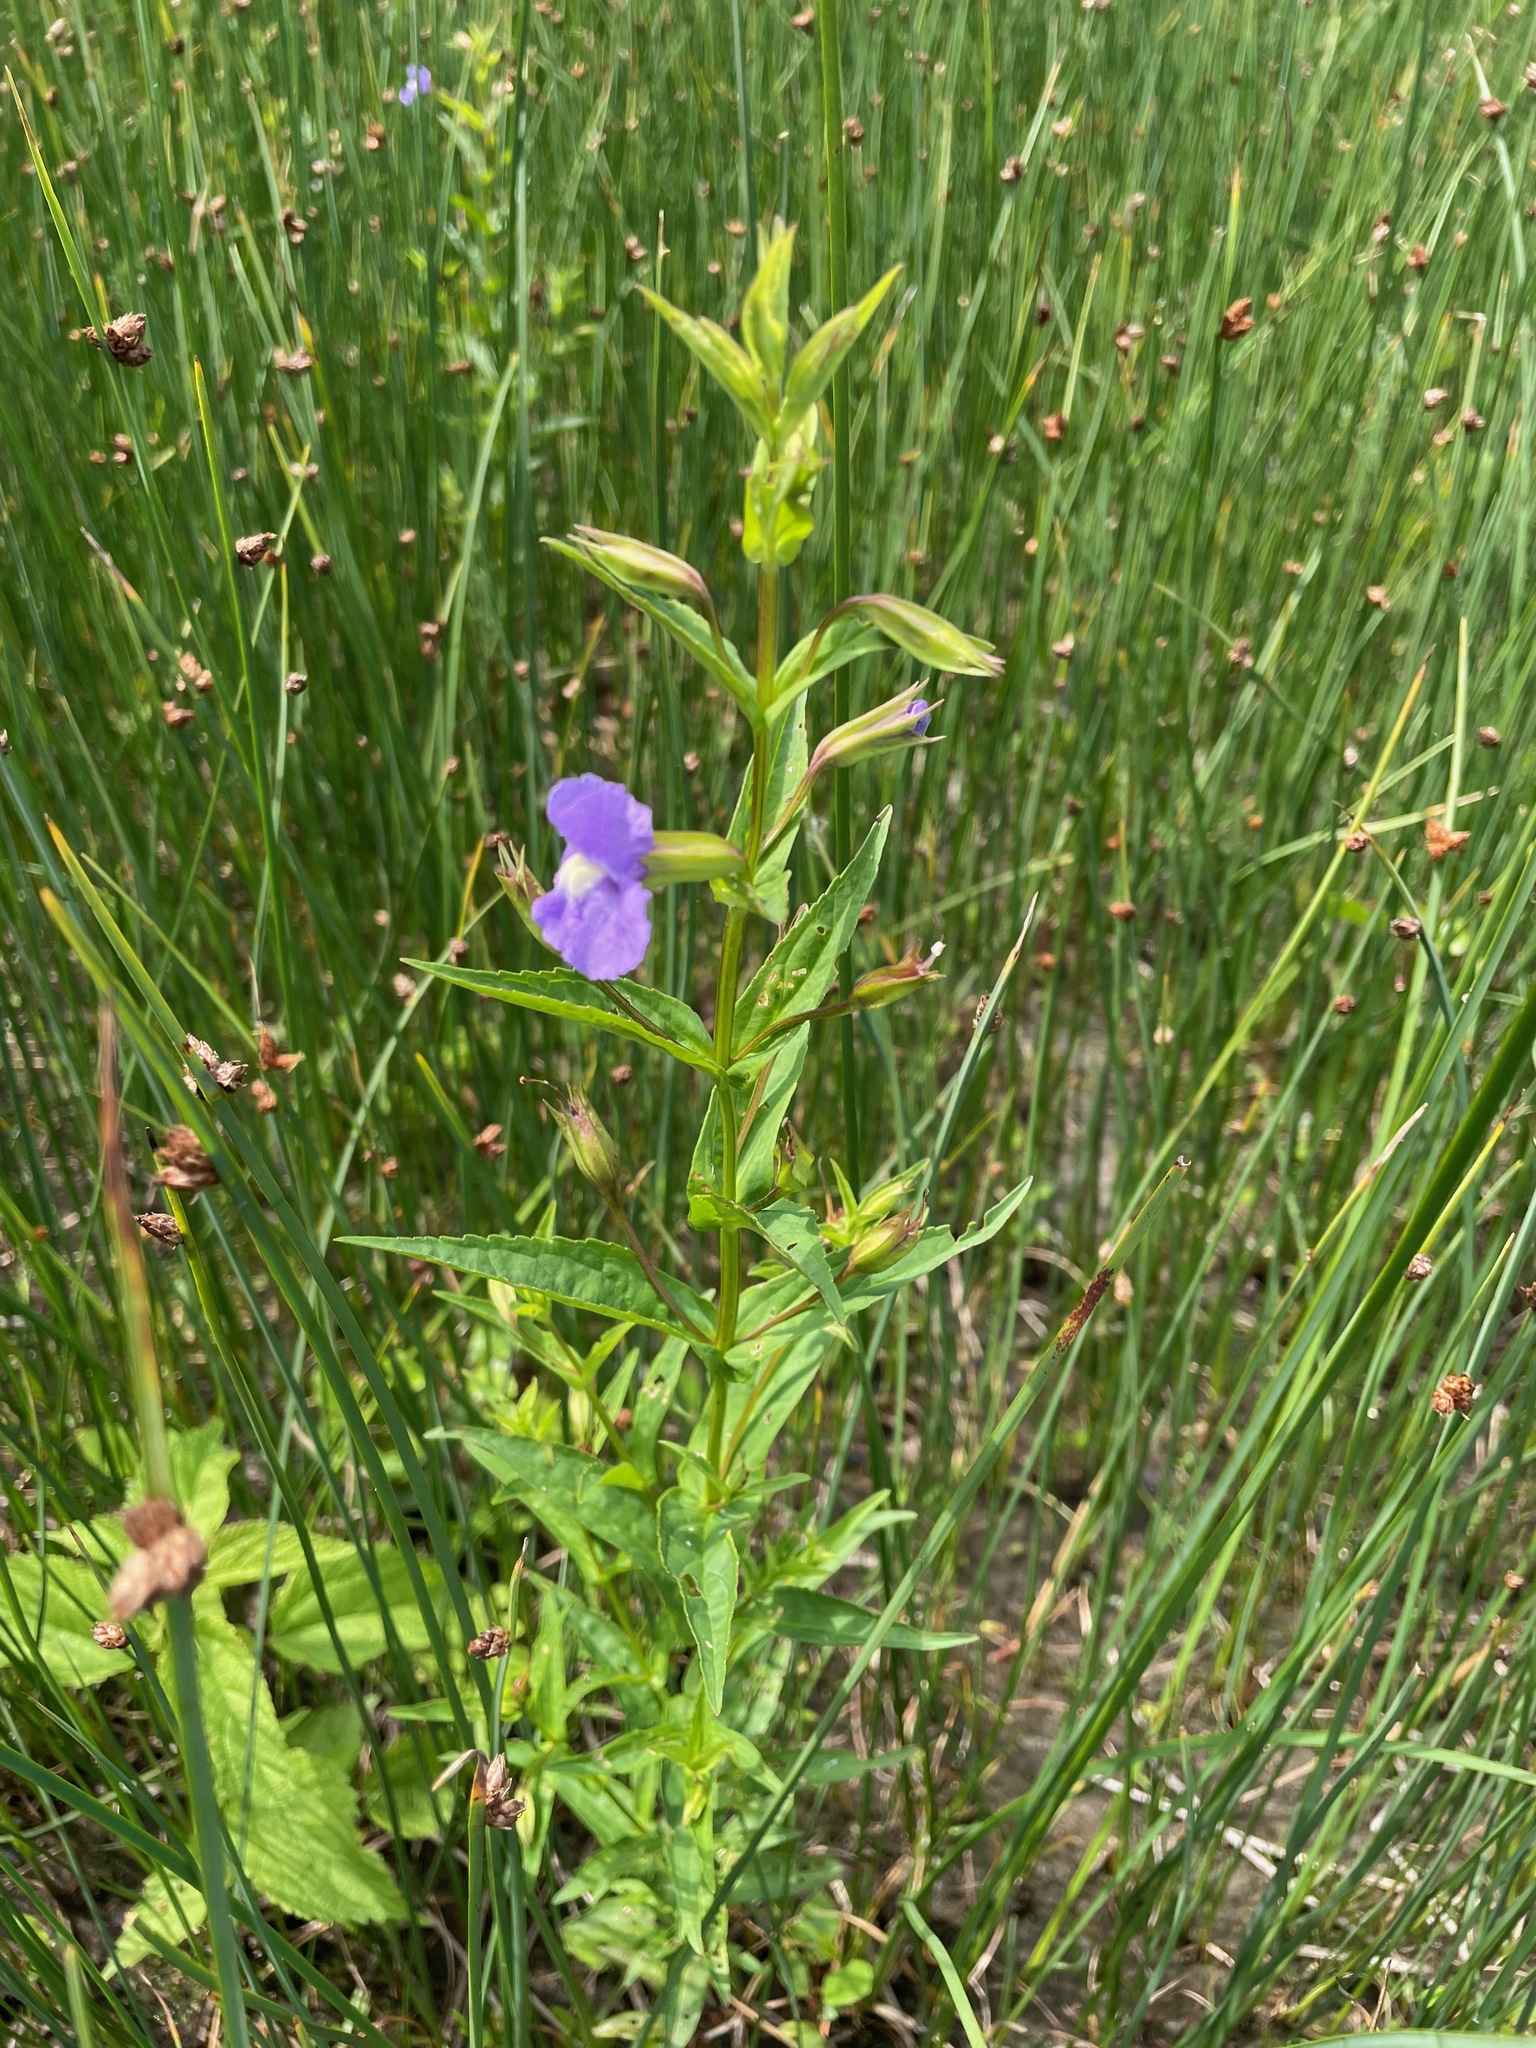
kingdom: Plantae
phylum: Tracheophyta
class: Magnoliopsida
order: Lamiales
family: Phrymaceae
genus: Mimulus
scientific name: Mimulus ringens
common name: Allegheny monkeyflower
